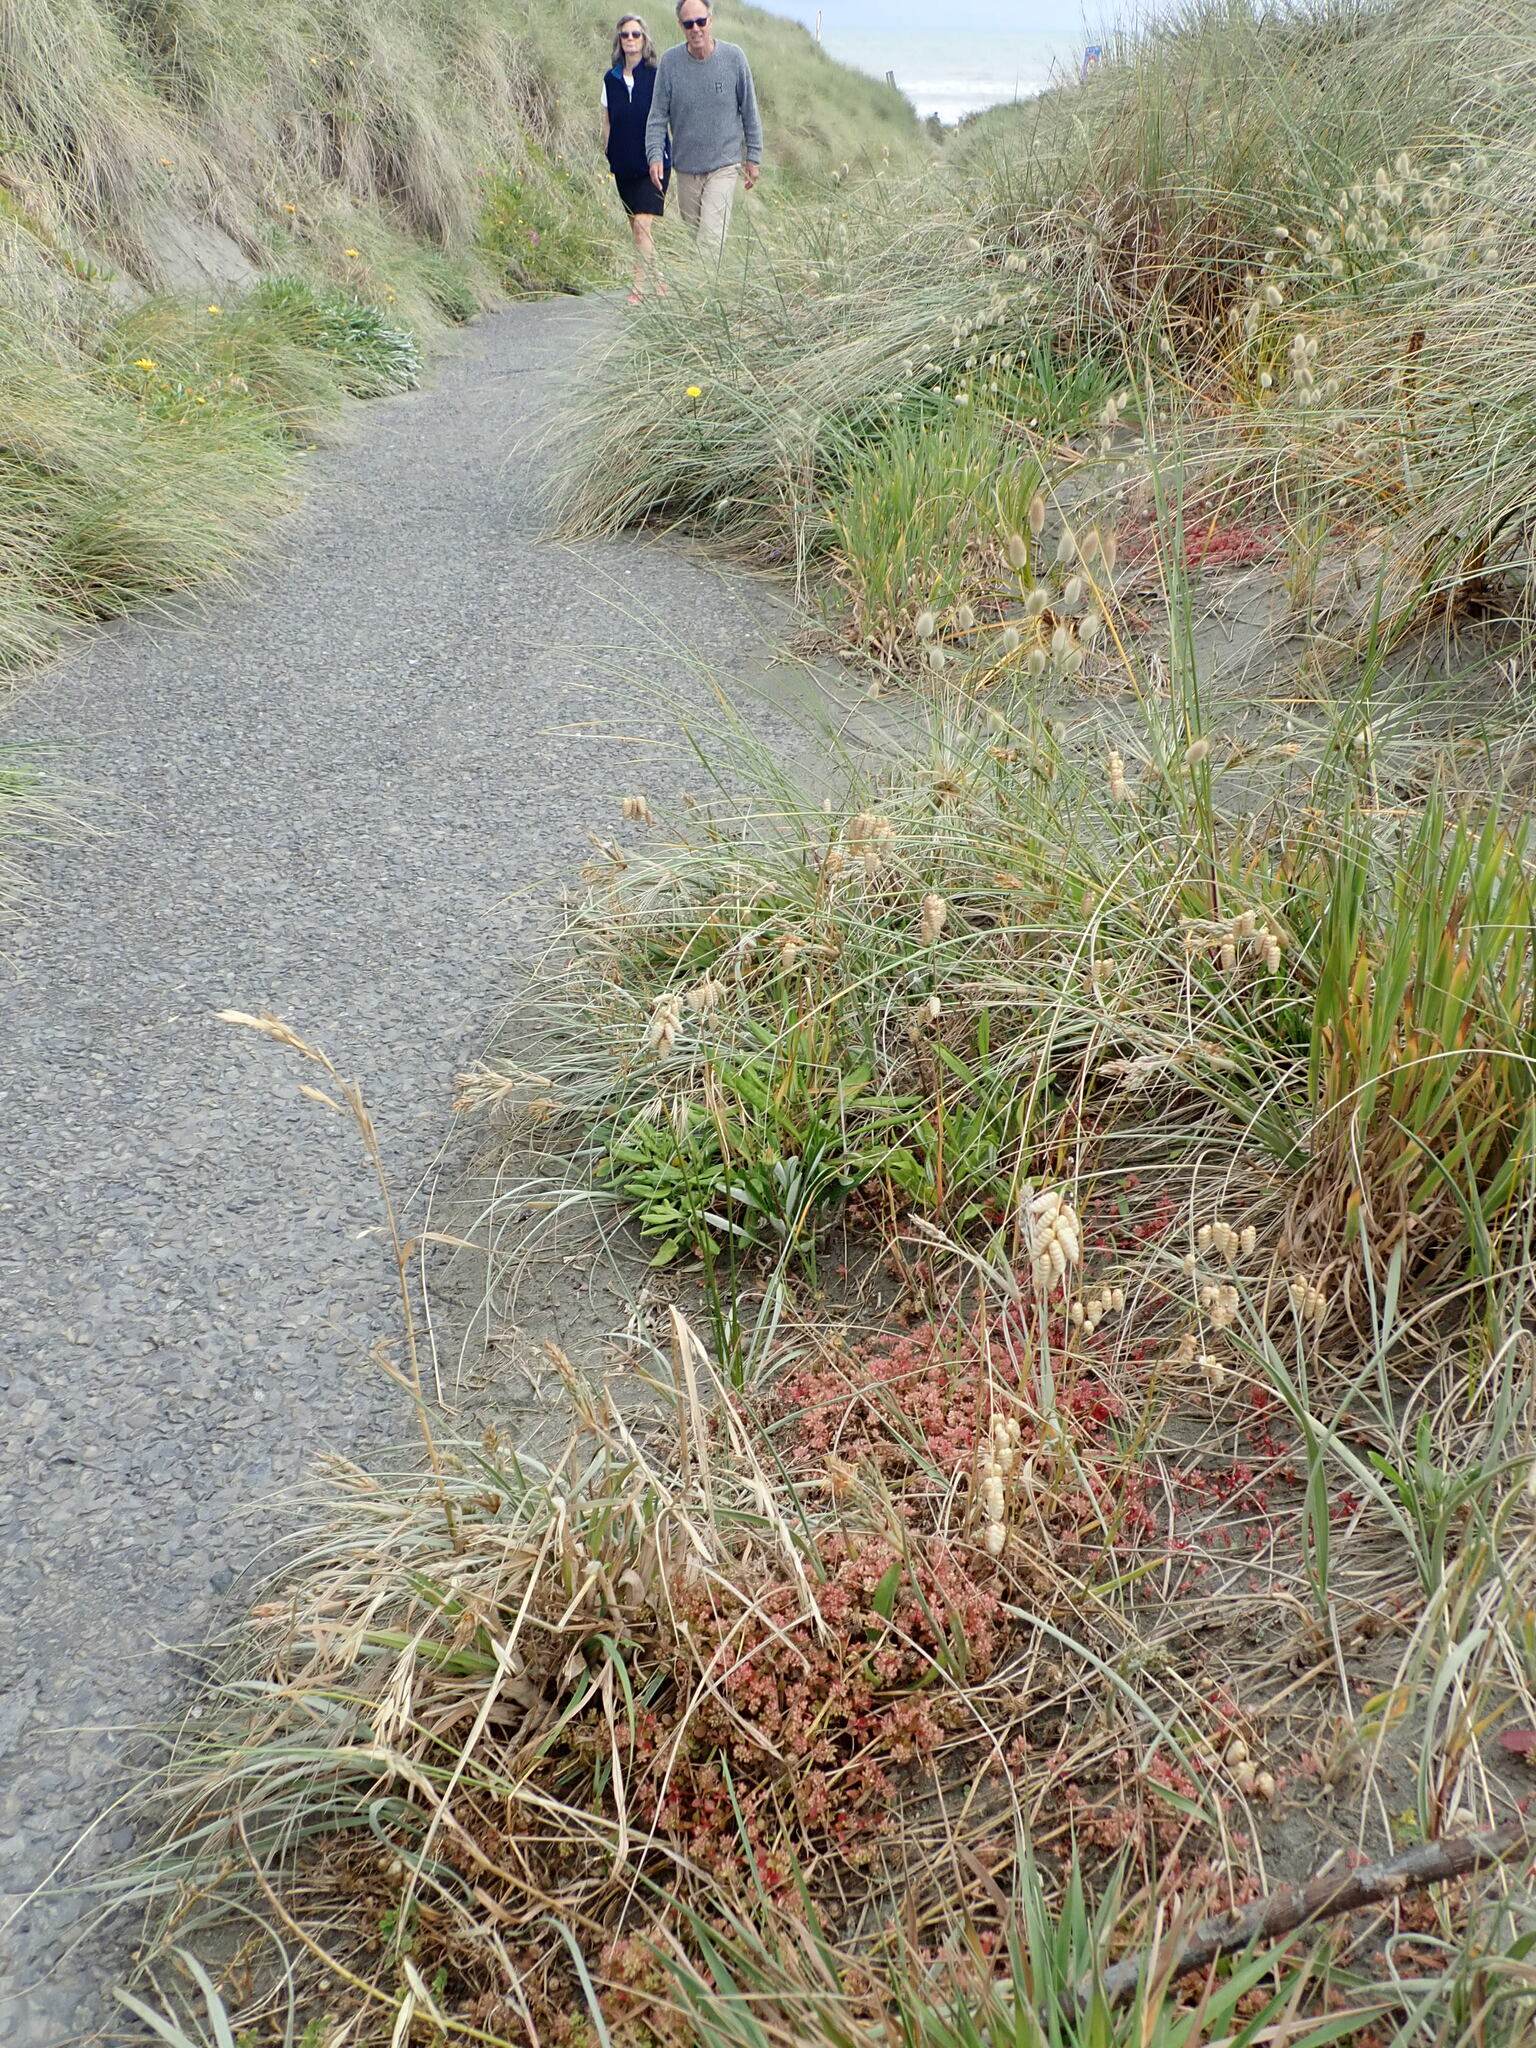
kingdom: Plantae
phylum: Tracheophyta
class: Magnoliopsida
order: Caryophyllales
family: Caryophyllaceae
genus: Polycarpon
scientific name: Polycarpon tetraphyllum
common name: Four-leaved all-seed
